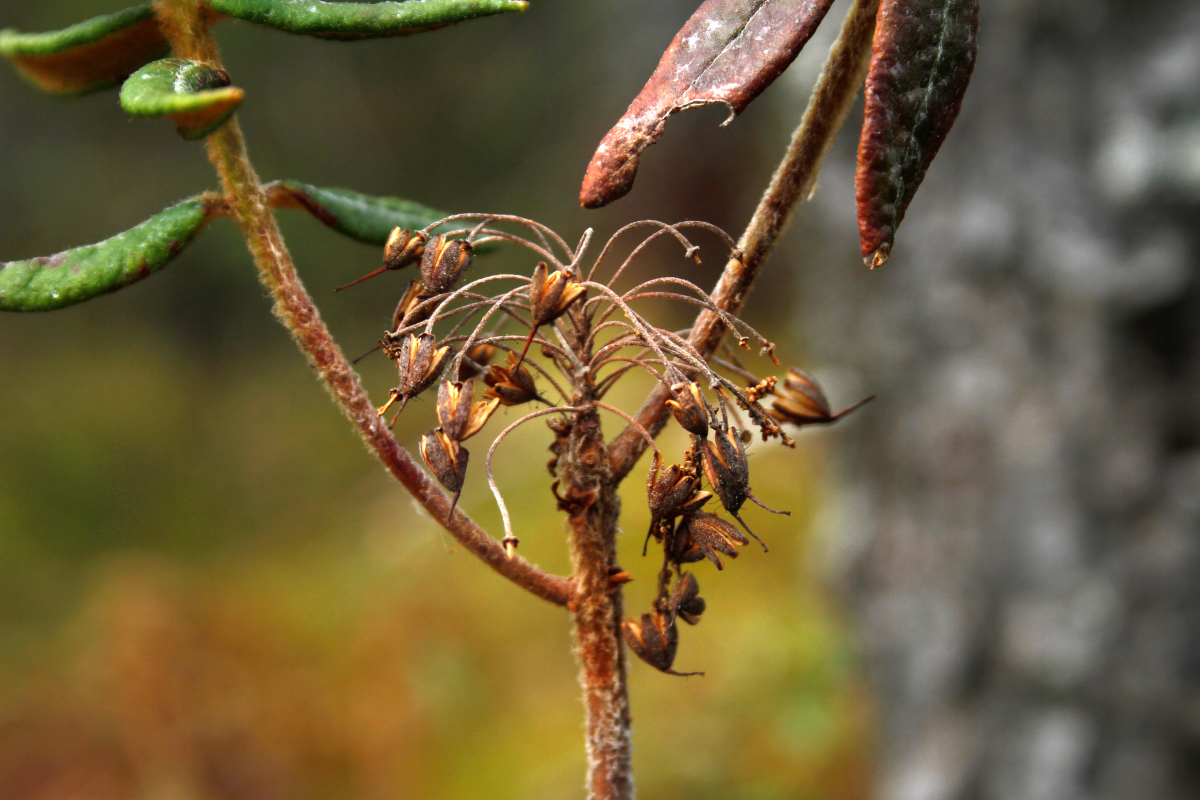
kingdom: Plantae
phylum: Tracheophyta
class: Magnoliopsida
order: Ericales
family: Ericaceae
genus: Rhododendron
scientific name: Rhododendron groenlandicum
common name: Bog labrador tea
